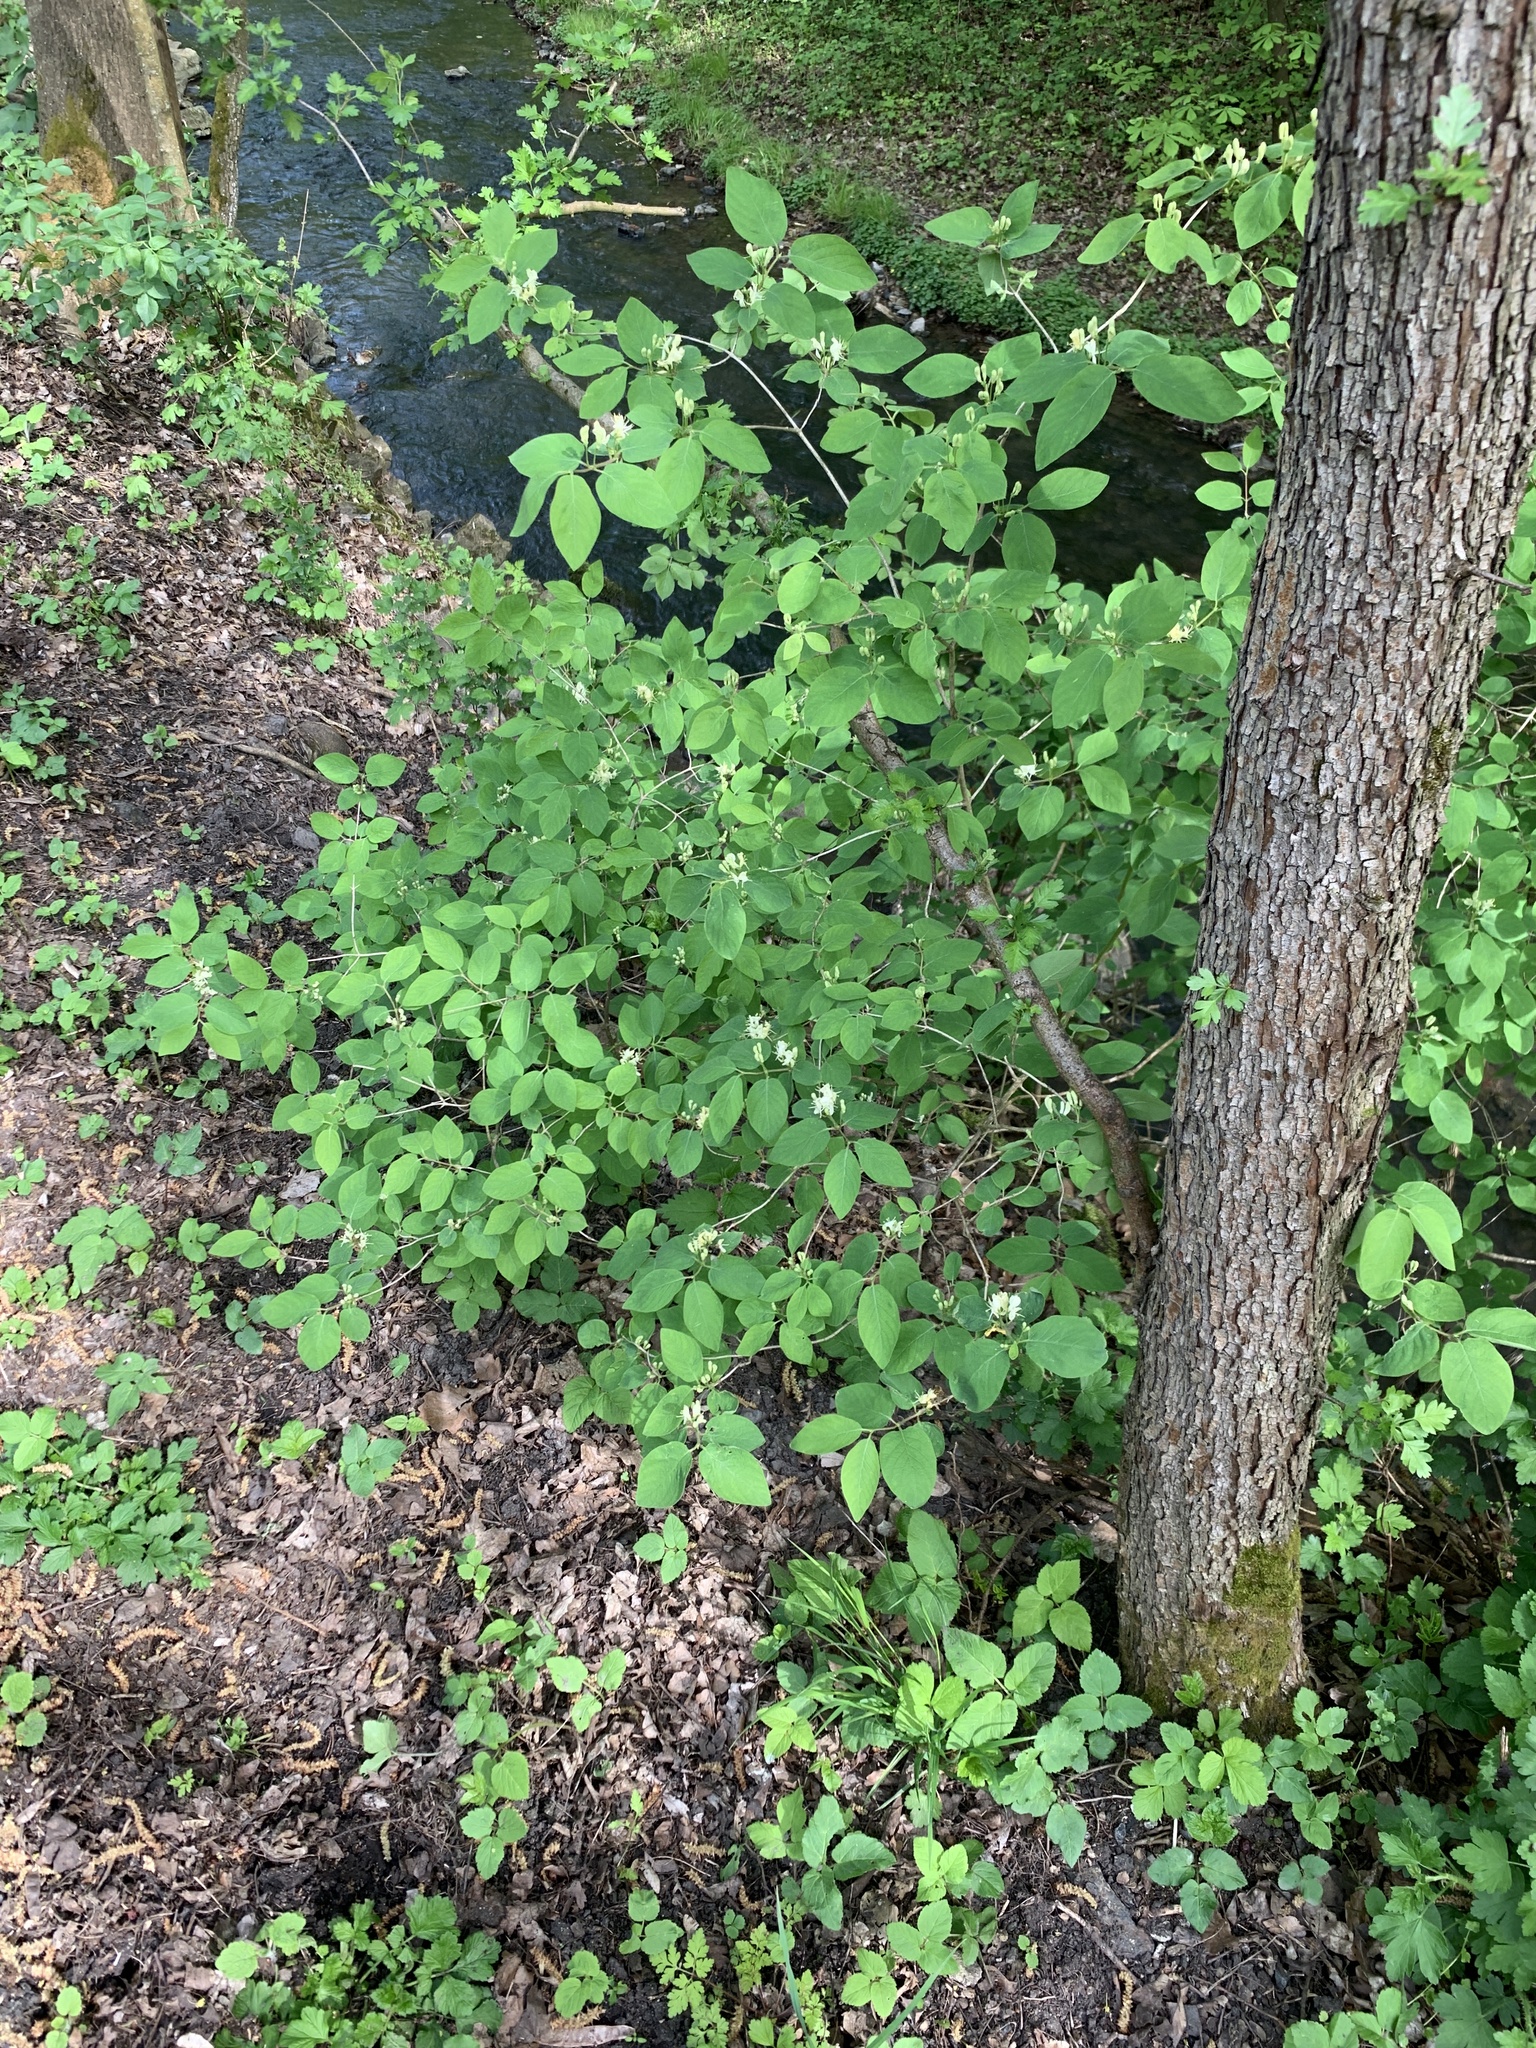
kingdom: Plantae
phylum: Tracheophyta
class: Magnoliopsida
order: Dipsacales
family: Caprifoliaceae
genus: Lonicera
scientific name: Lonicera xylosteum
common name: Fly honeysuckle
